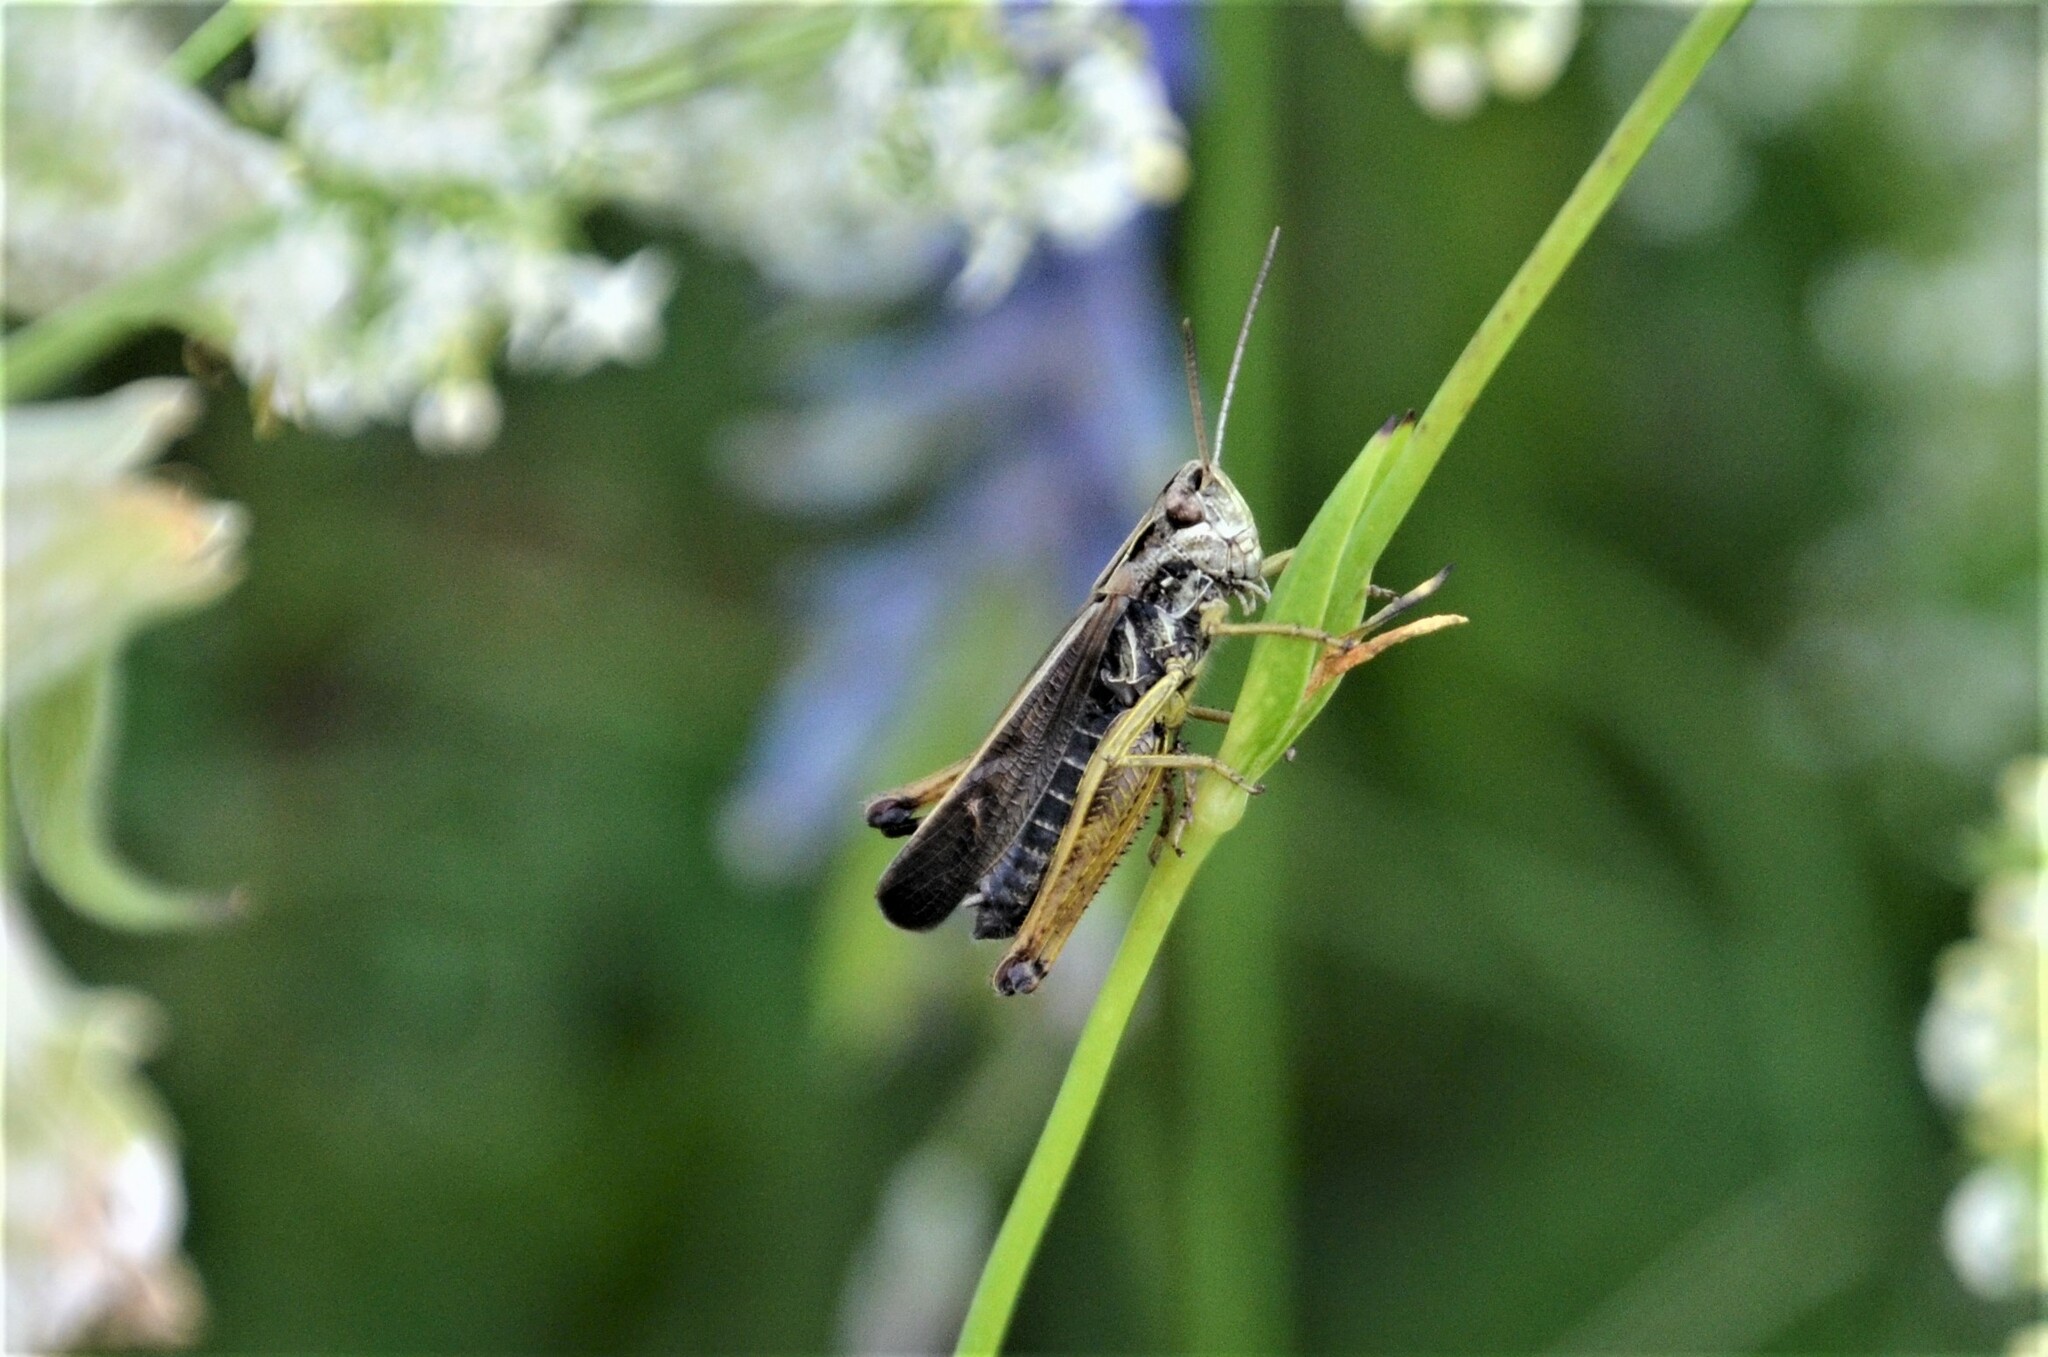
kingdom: Animalia
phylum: Arthropoda
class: Insecta
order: Orthoptera
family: Acrididae
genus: Omocestus
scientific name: Omocestus viridulus
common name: Common green grasshopper
